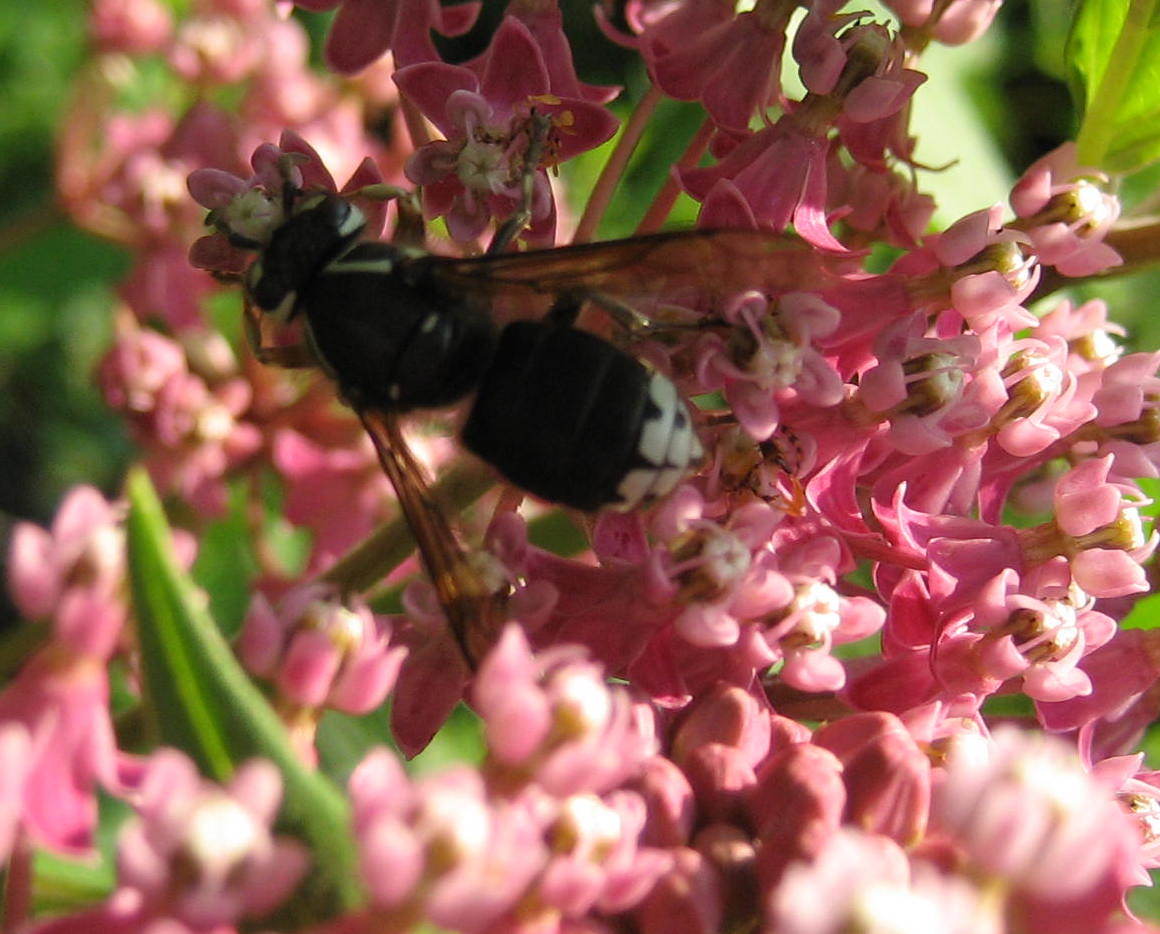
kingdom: Animalia
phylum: Arthropoda
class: Insecta
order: Hymenoptera
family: Vespidae
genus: Dolichovespula
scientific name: Dolichovespula maculata
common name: Bald-faced hornet
